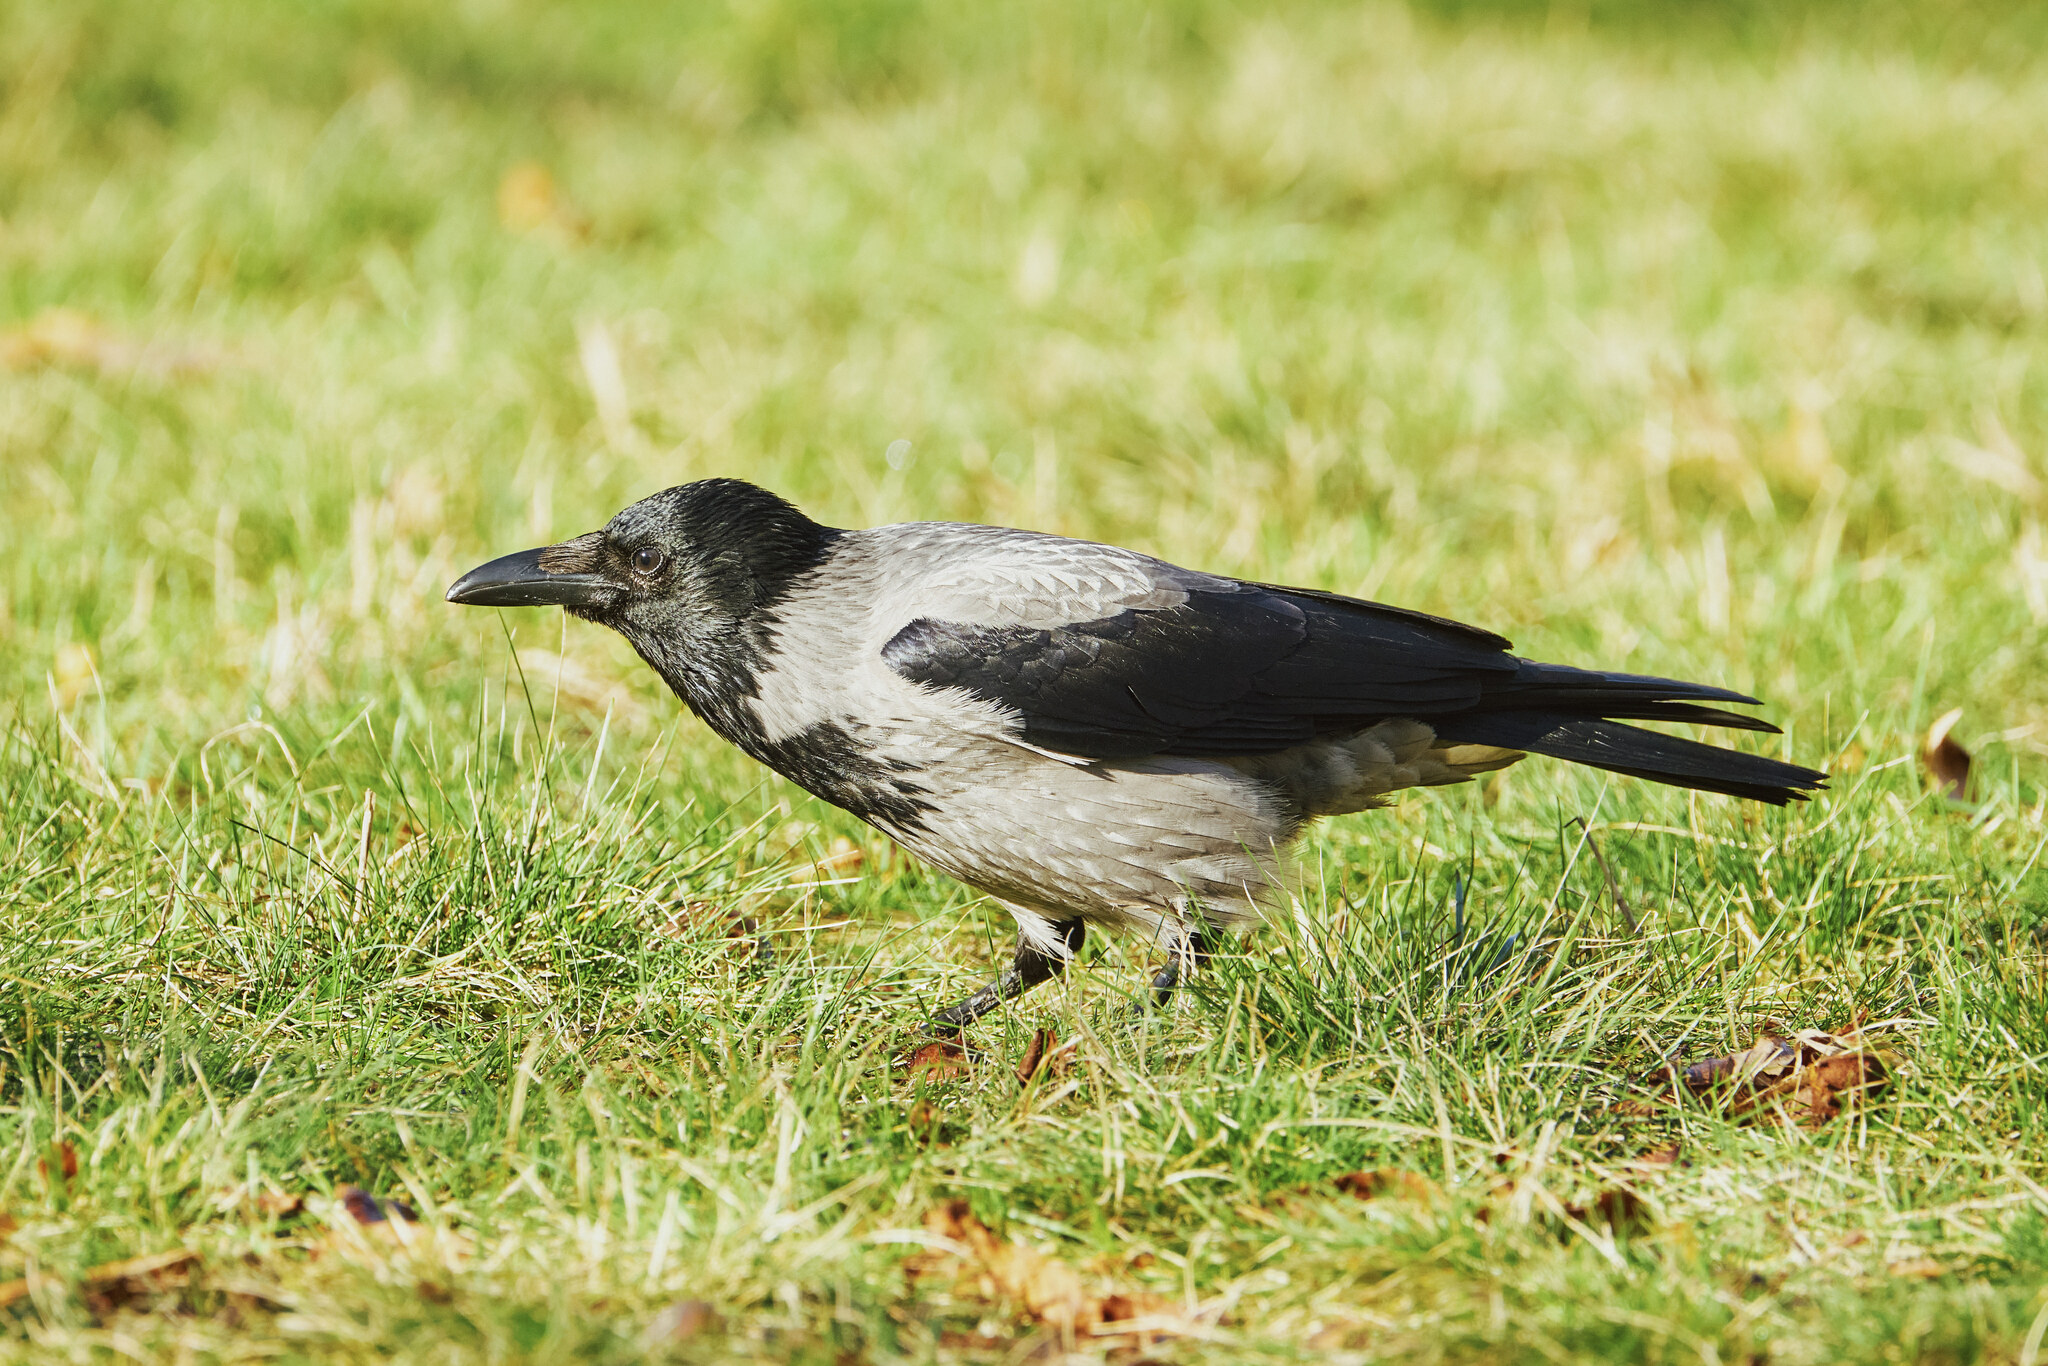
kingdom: Animalia
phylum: Chordata
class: Aves
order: Passeriformes
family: Corvidae
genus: Corvus
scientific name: Corvus cornix
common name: Hooded crow
